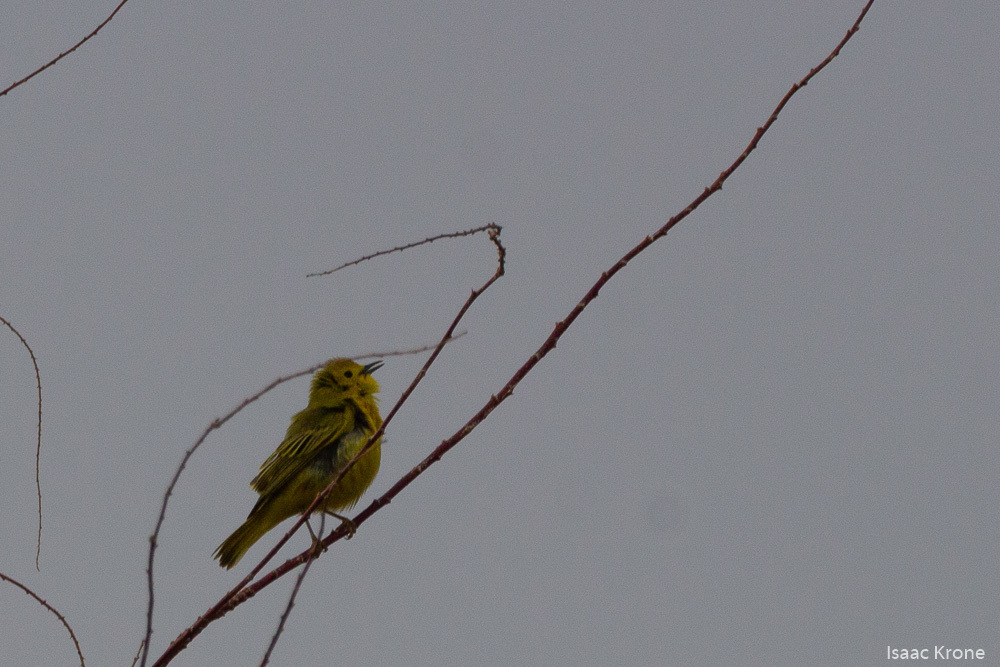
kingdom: Animalia
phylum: Chordata
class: Aves
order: Passeriformes
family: Parulidae
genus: Setophaga
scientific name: Setophaga petechia
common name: Yellow warbler
